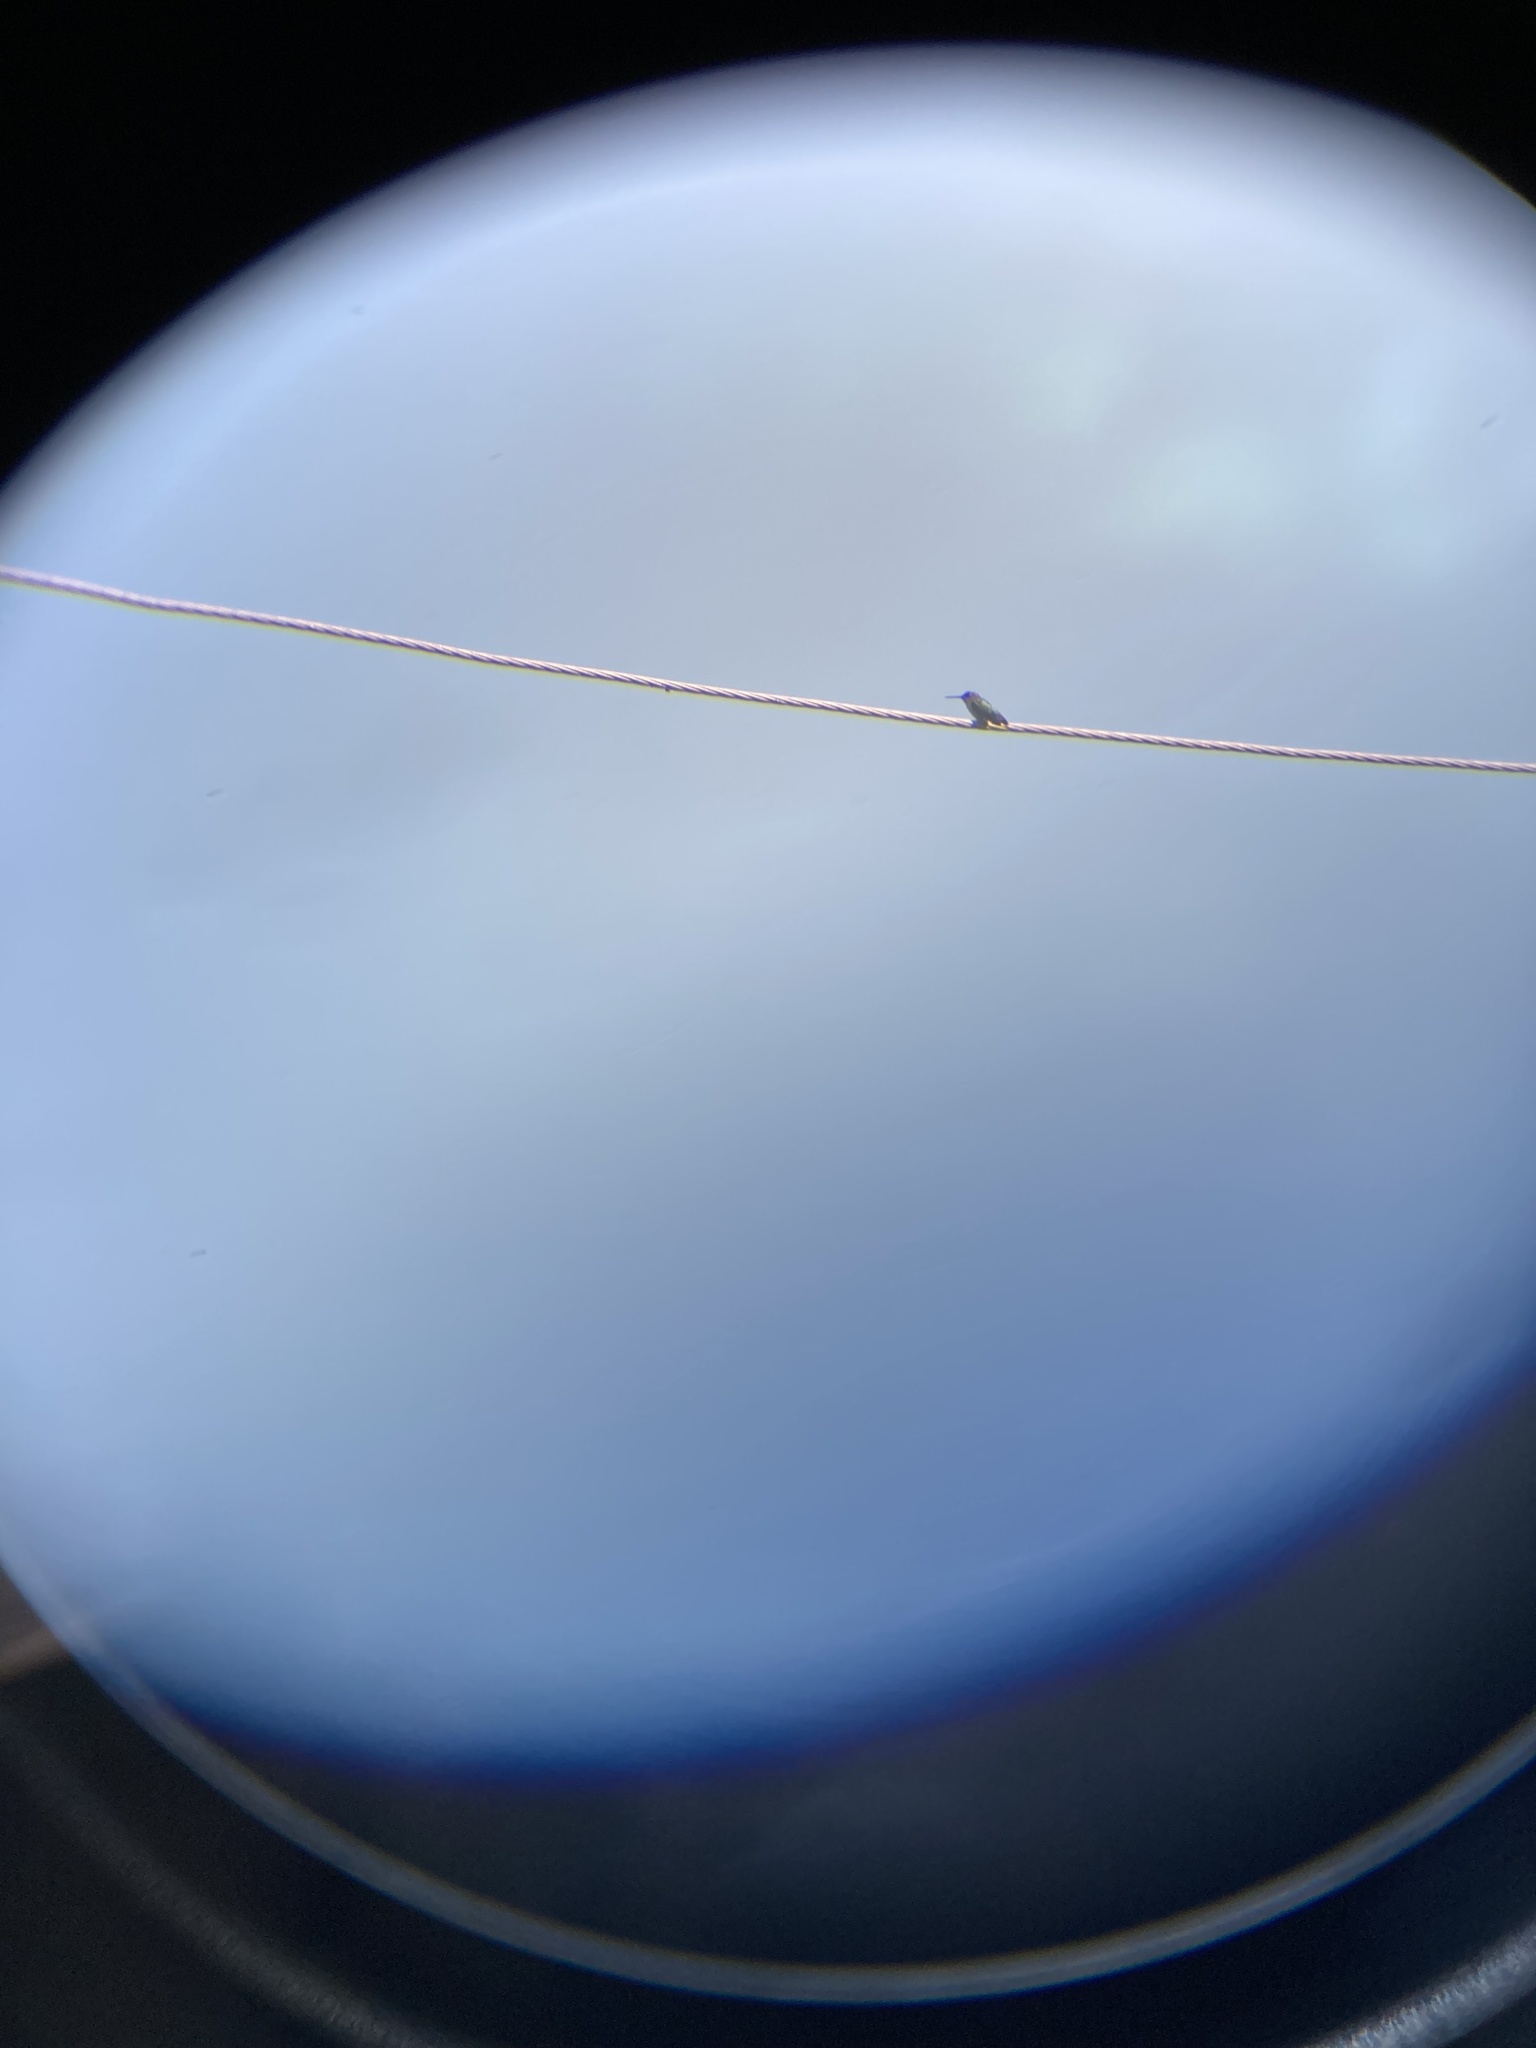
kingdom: Animalia
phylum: Chordata
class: Aves
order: Apodiformes
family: Trochilidae
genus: Archilochus
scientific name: Archilochus colubris
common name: Ruby-throated hummingbird
